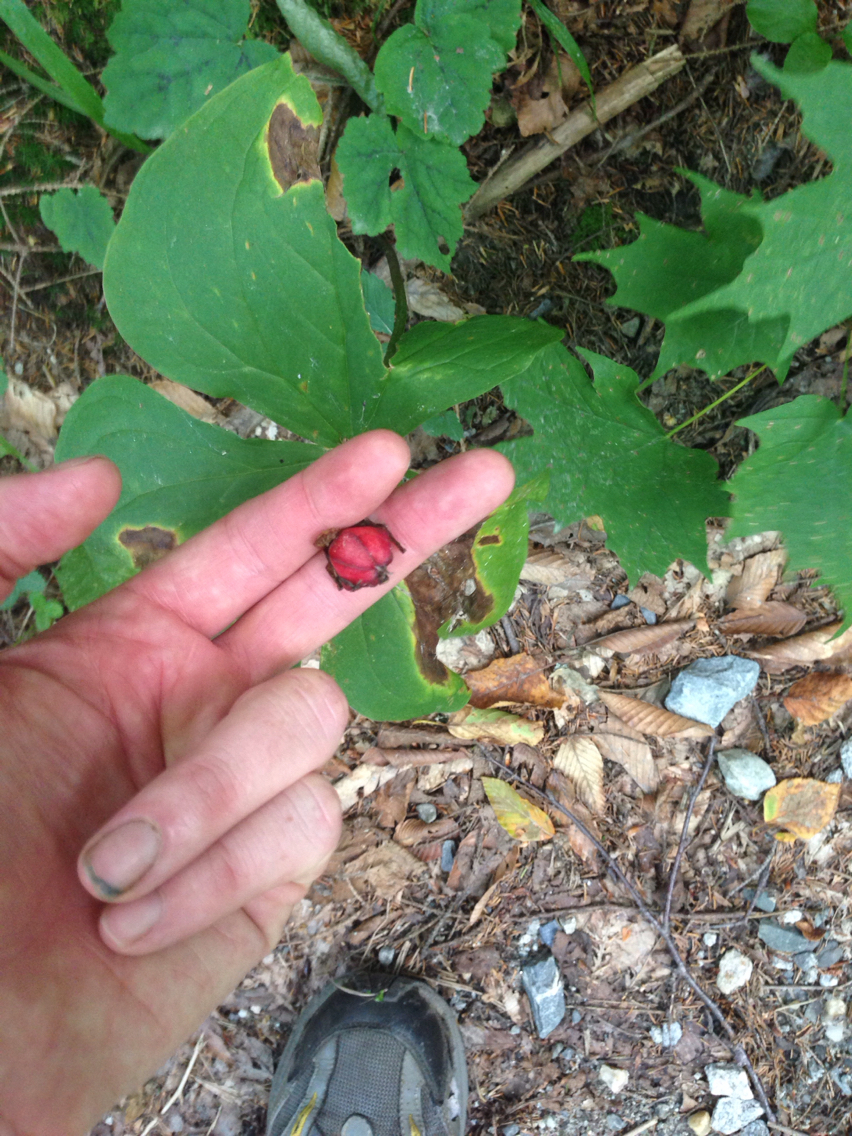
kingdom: Plantae
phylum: Tracheophyta
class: Liliopsida
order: Liliales
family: Melanthiaceae
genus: Trillium
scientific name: Trillium erectum
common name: Purple trillium
